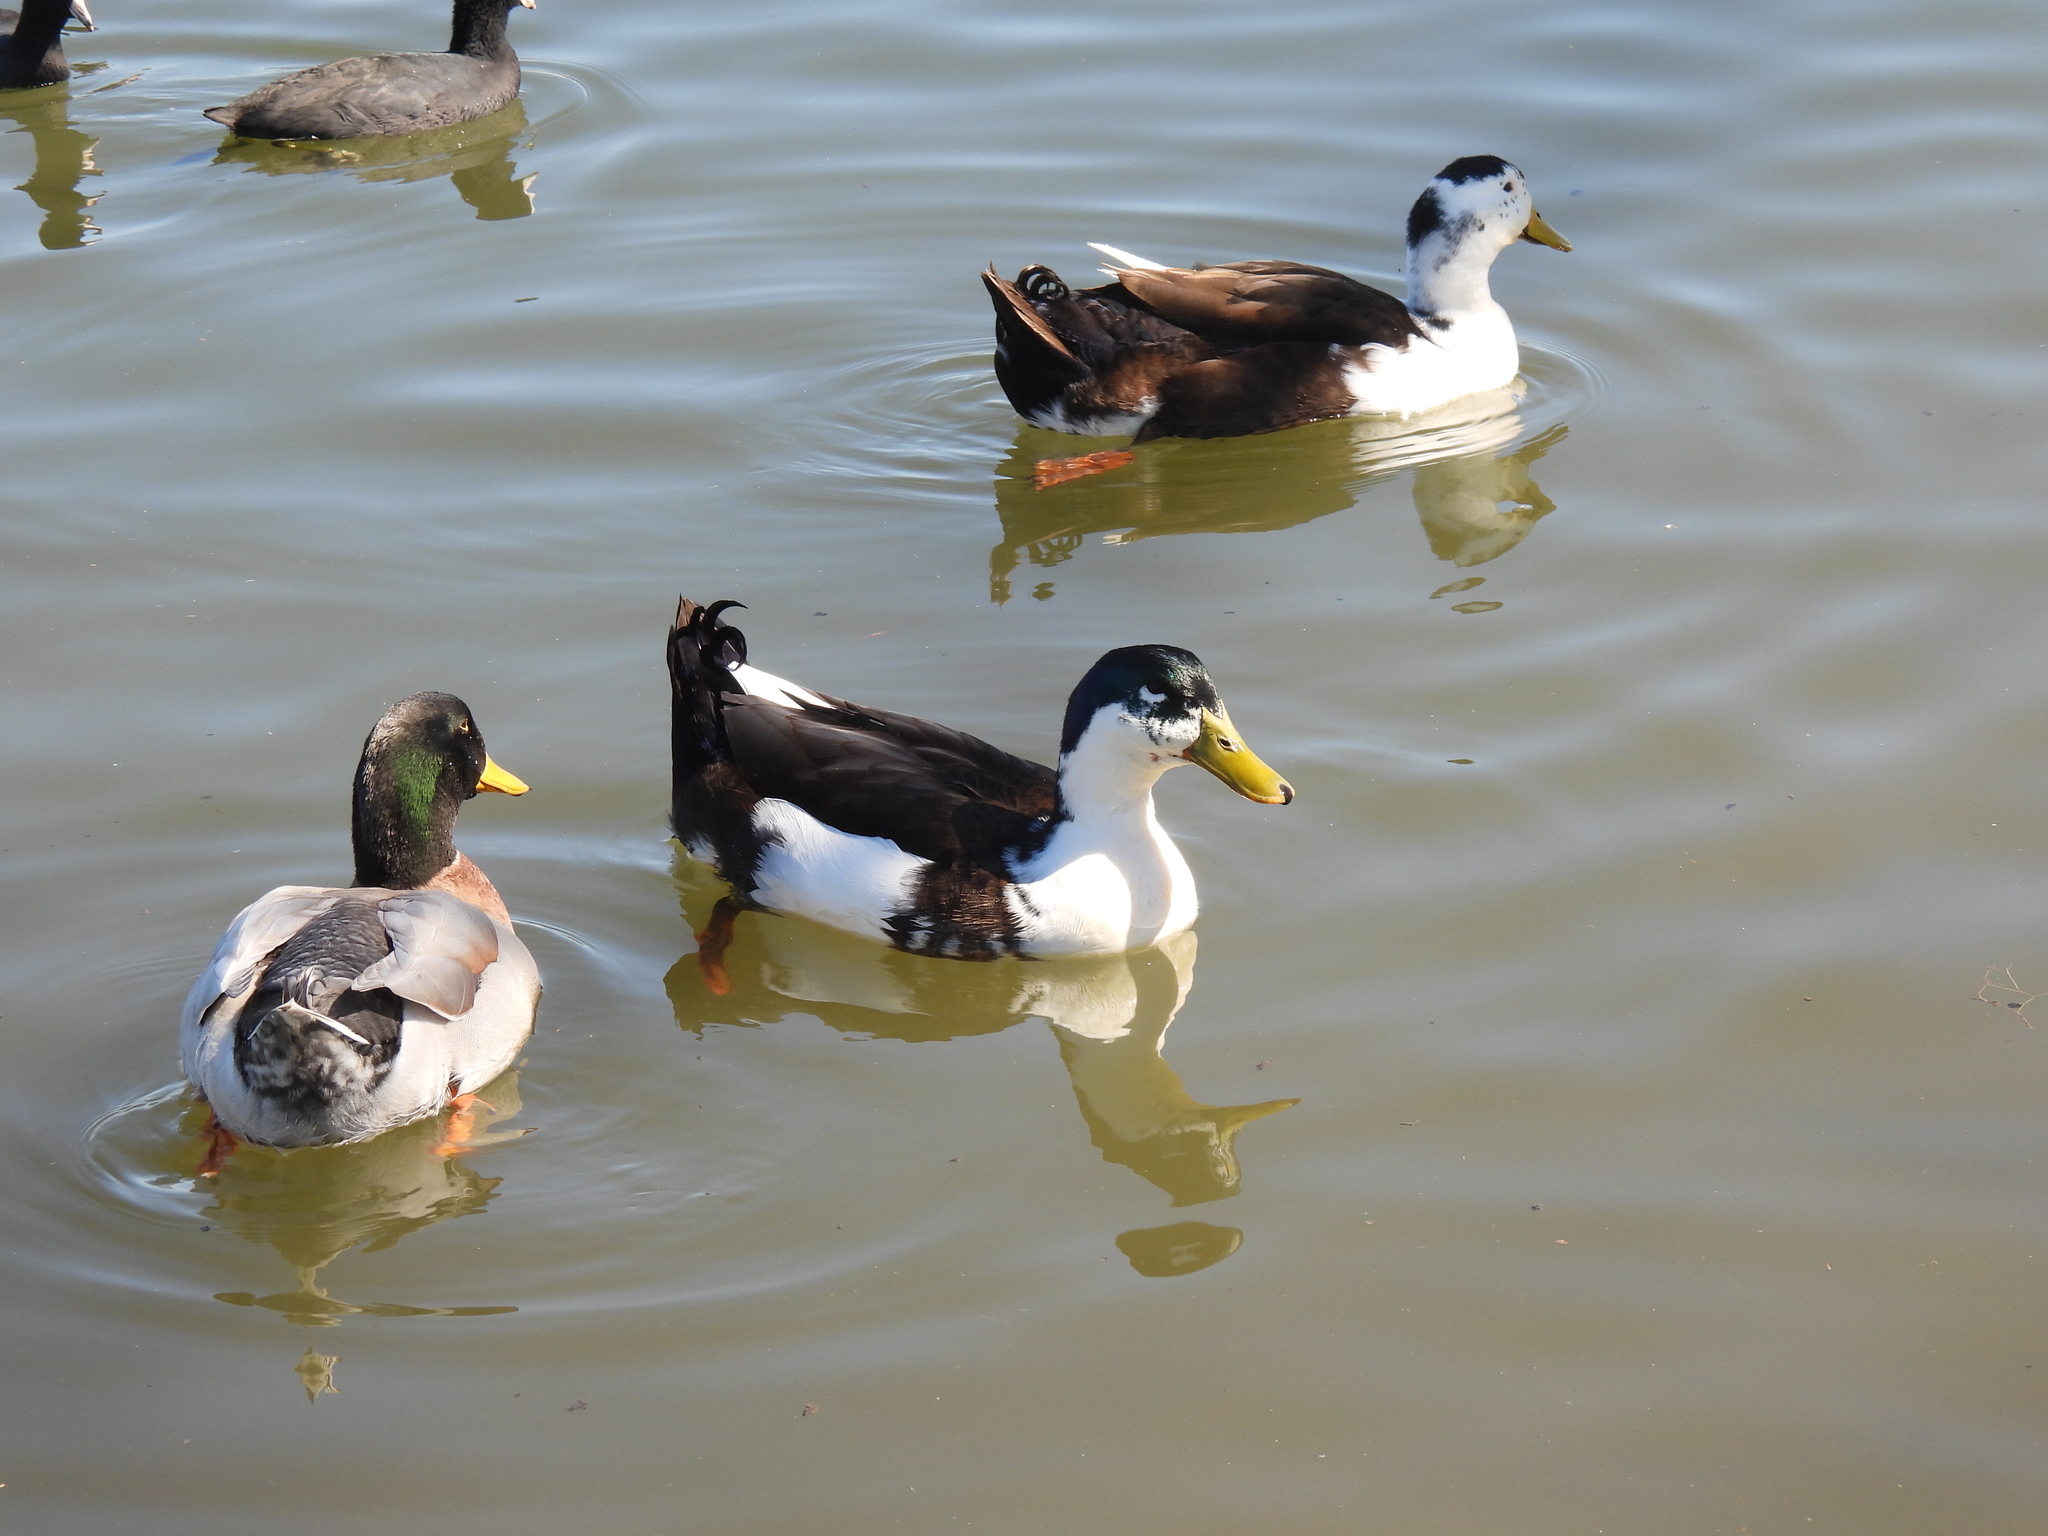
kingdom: Animalia
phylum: Chordata
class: Aves
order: Anseriformes
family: Anatidae
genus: Anas
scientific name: Anas platyrhynchos
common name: Mallard
